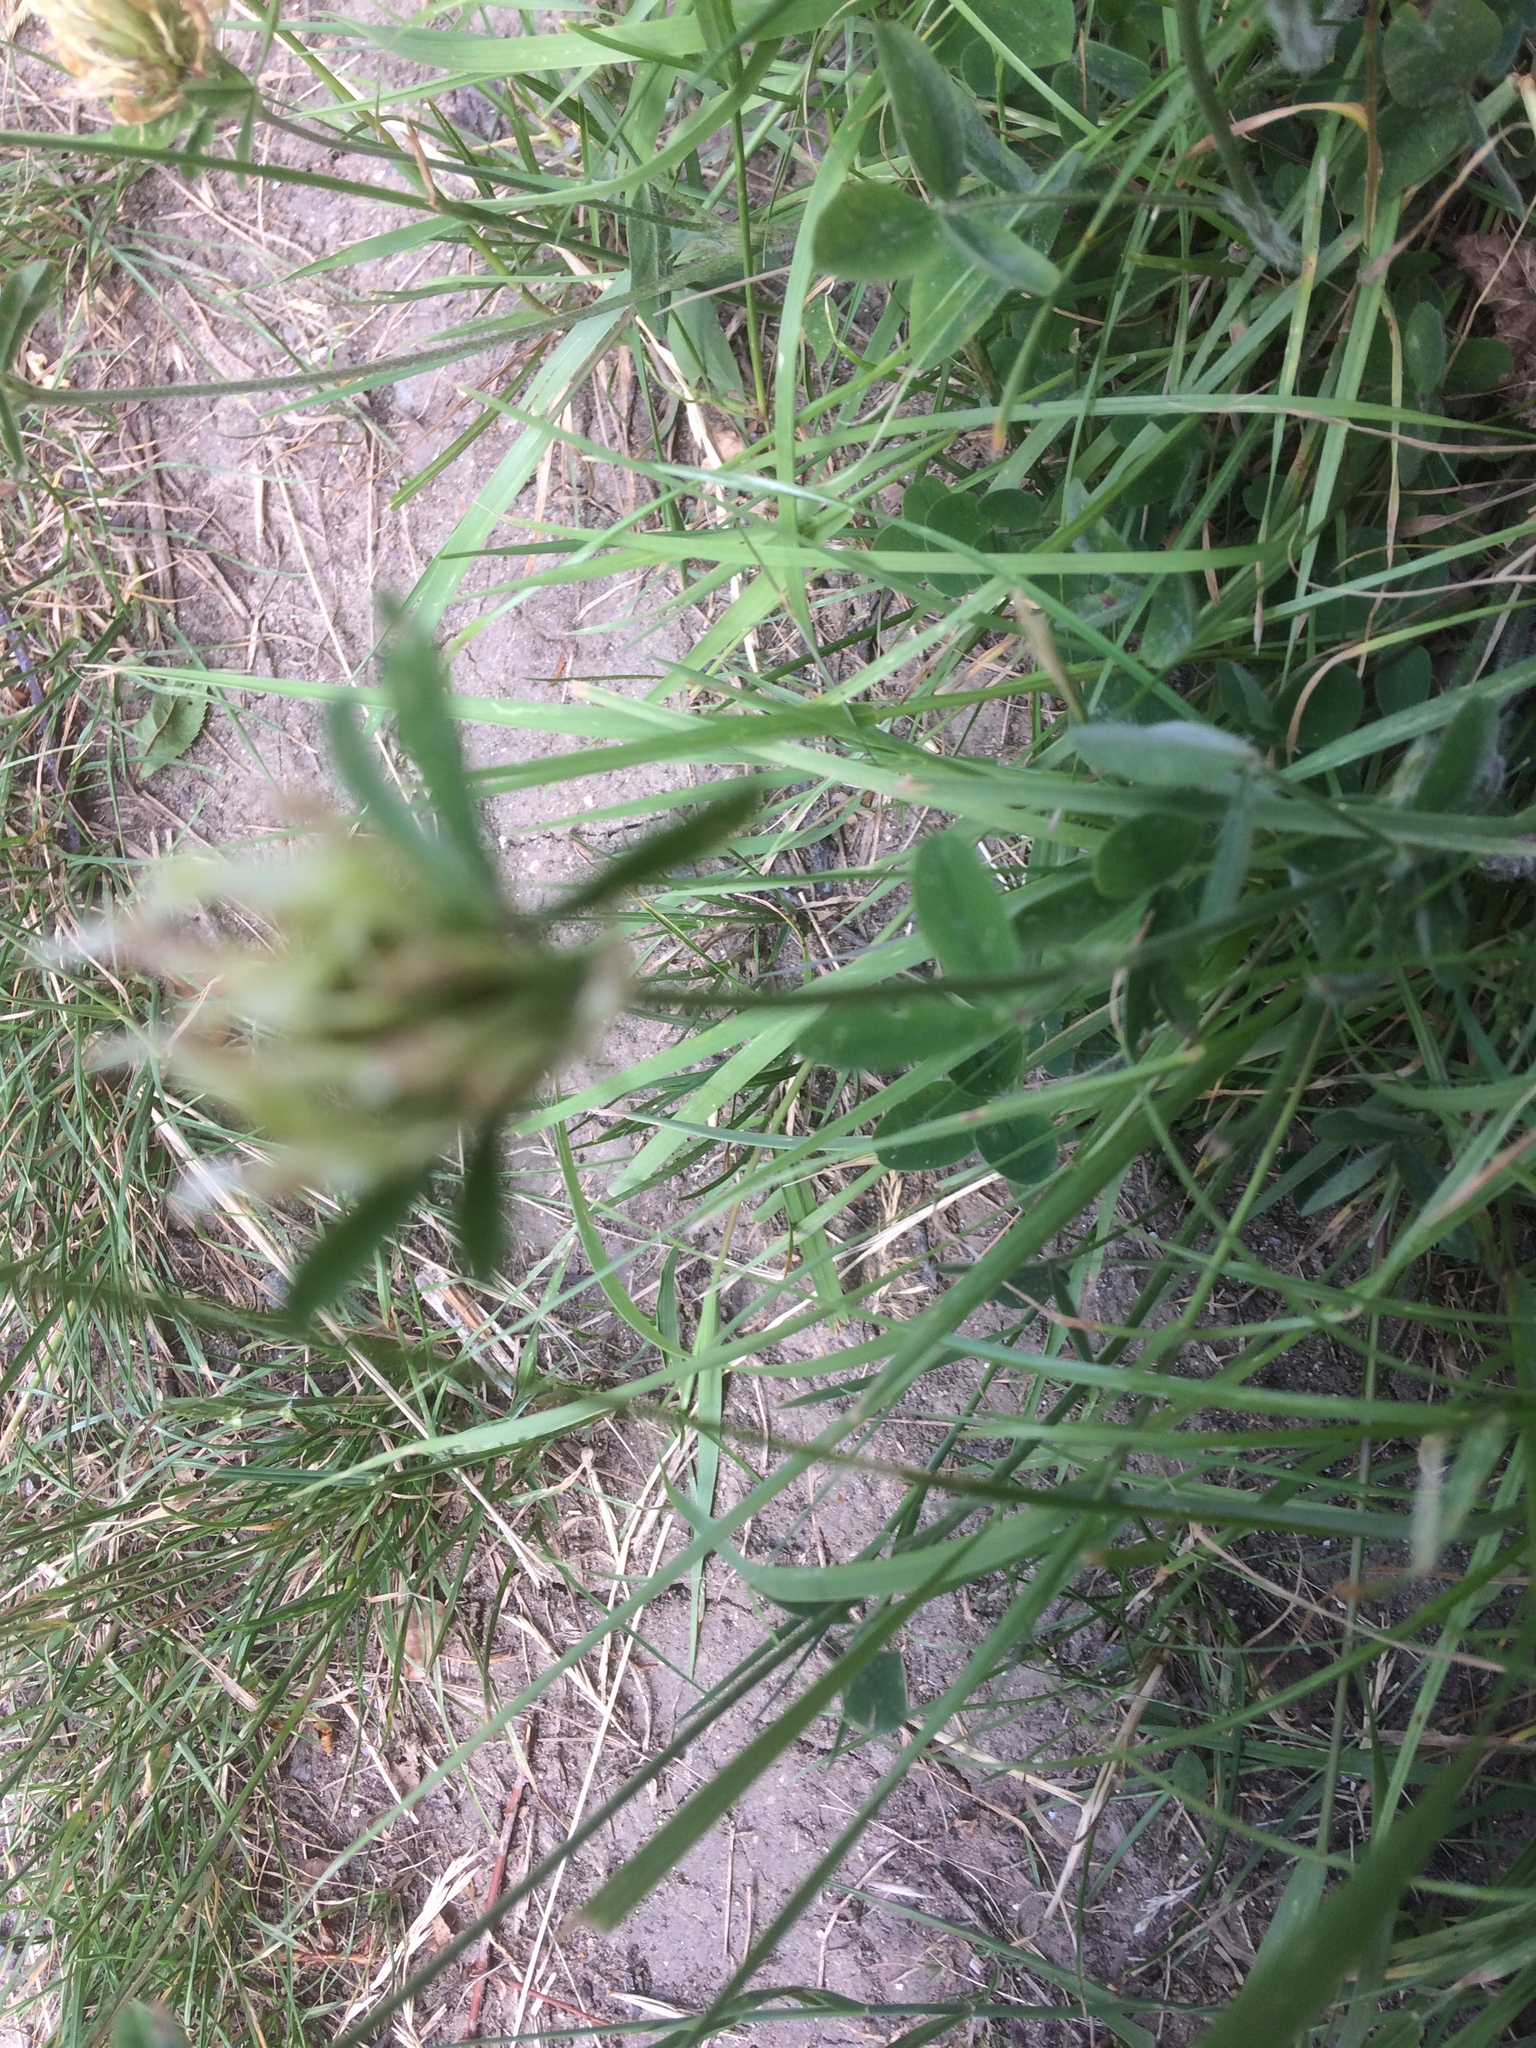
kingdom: Plantae
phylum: Tracheophyta
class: Magnoliopsida
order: Fabales
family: Fabaceae
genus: Trifolium
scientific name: Trifolium ochroleucon
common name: Sulphur clover
